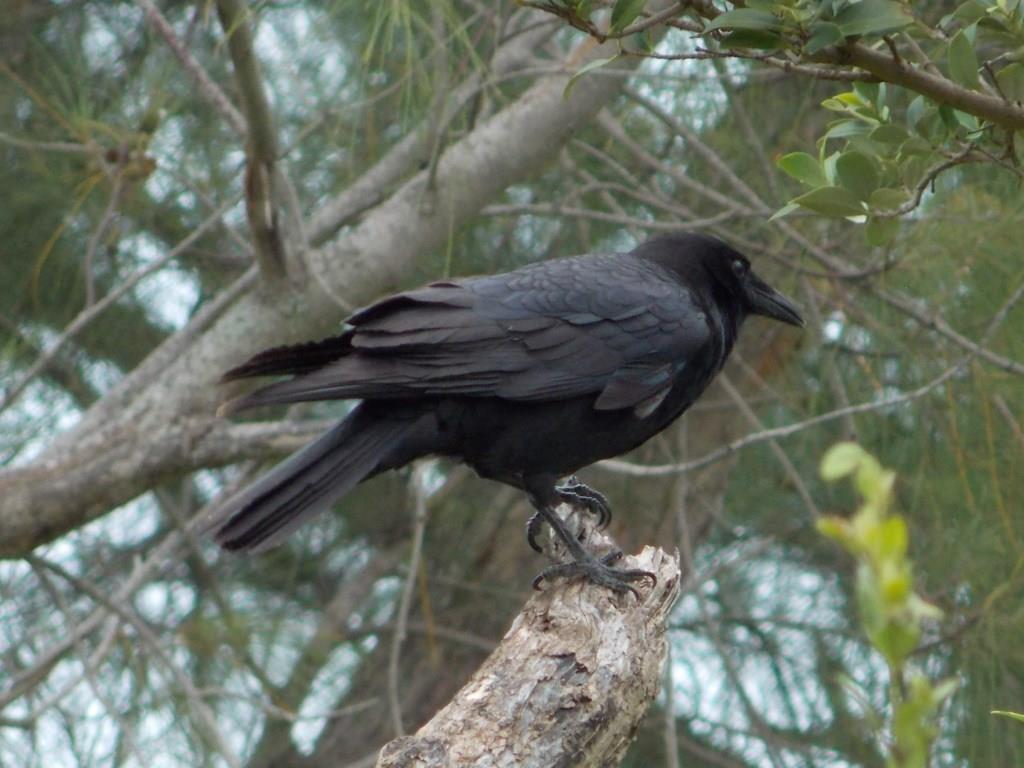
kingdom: Animalia
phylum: Chordata
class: Aves
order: Passeriformes
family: Corvidae
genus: Corvus
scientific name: Corvus brachyrhynchos
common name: American crow
